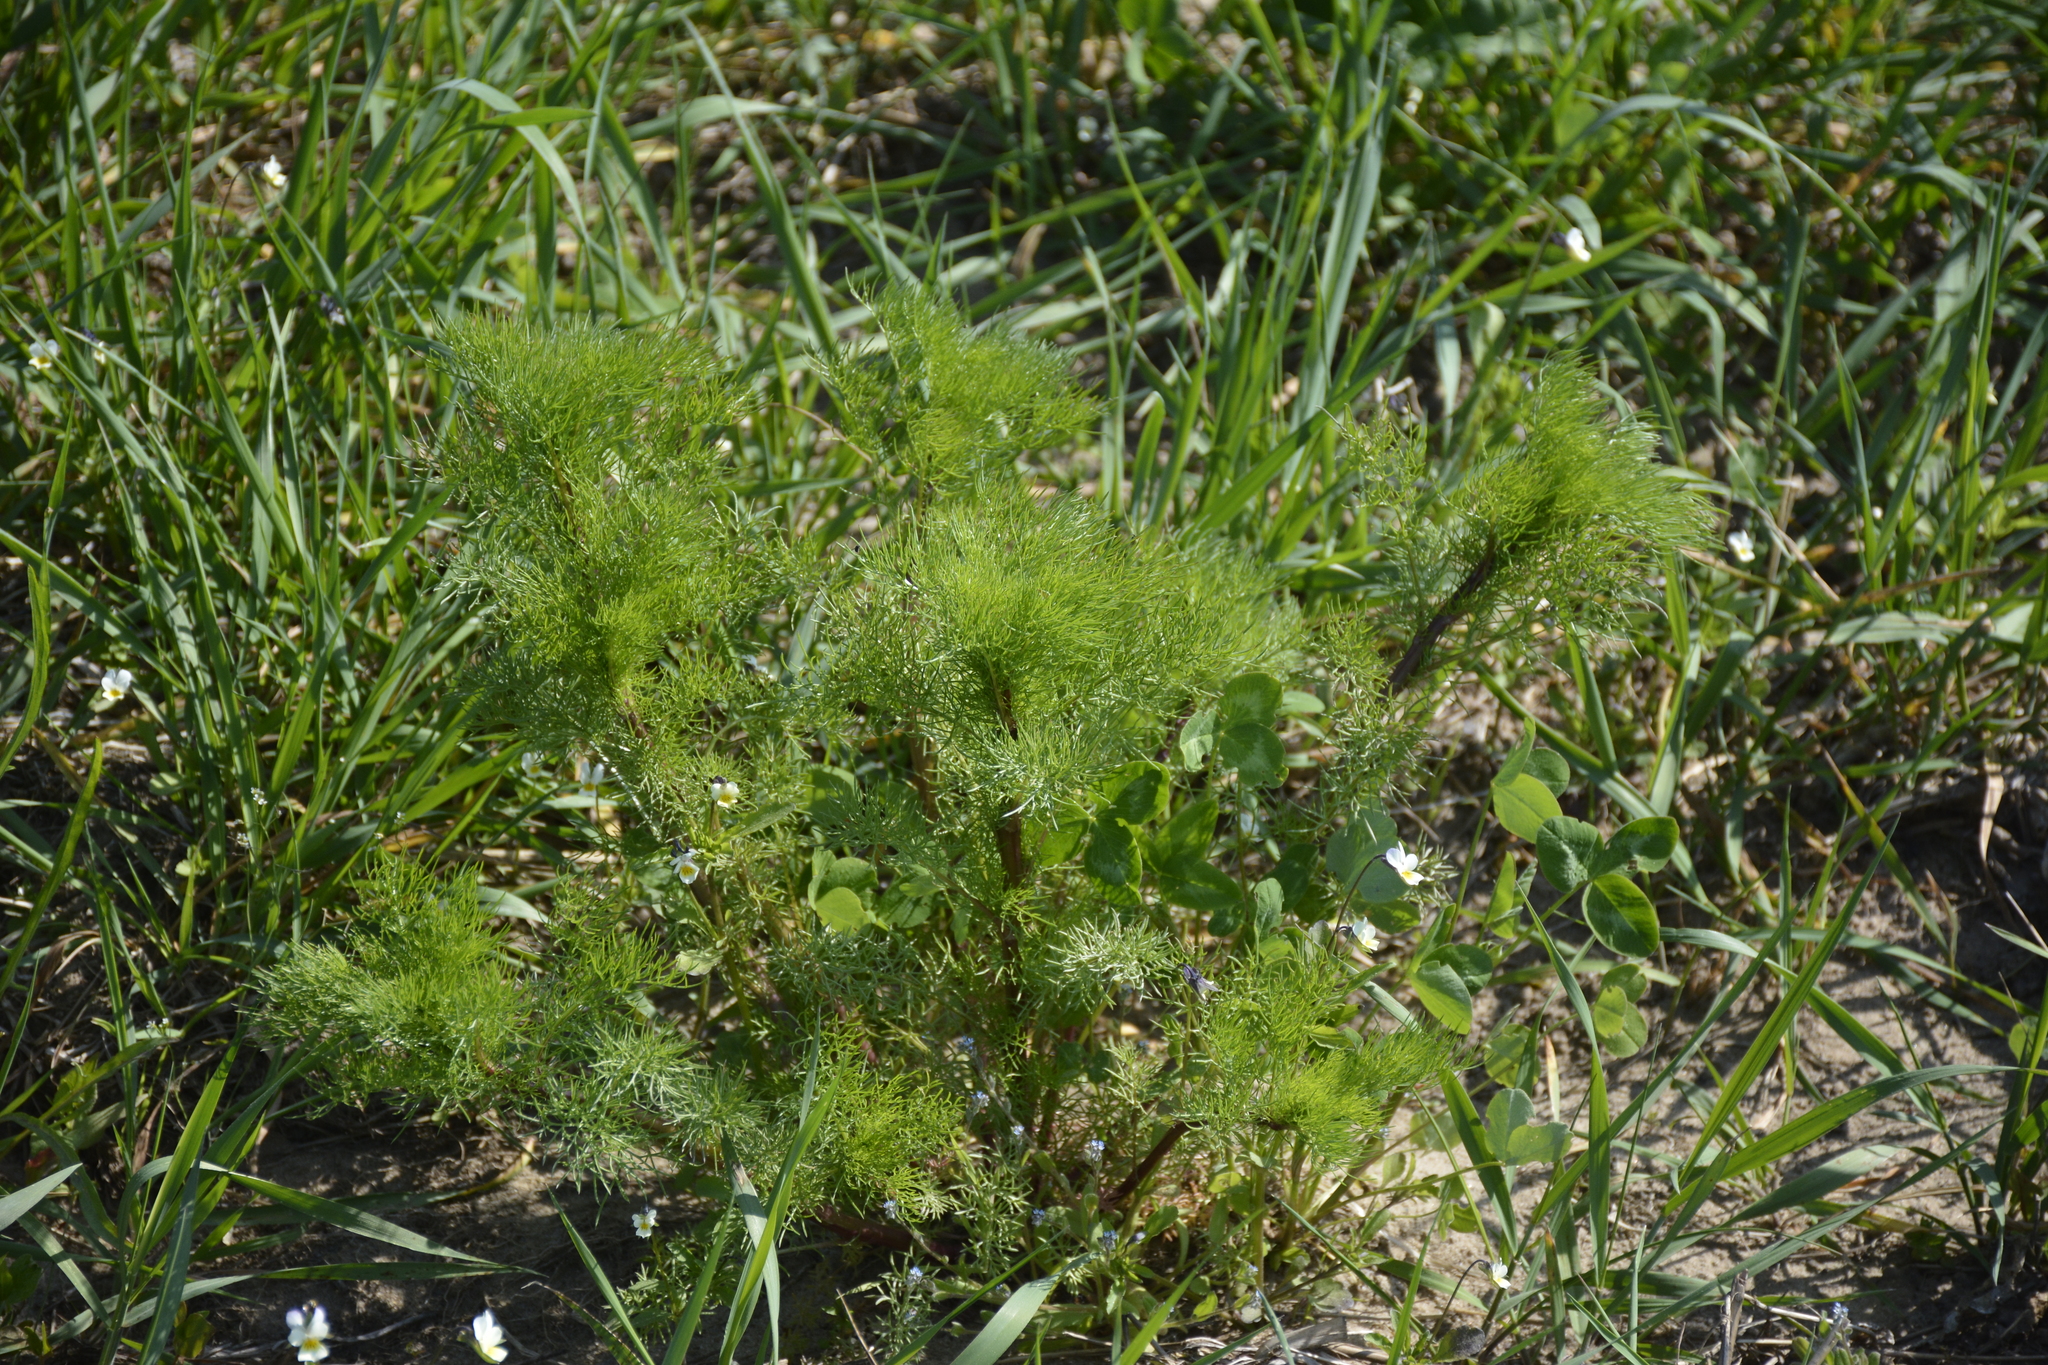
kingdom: Plantae
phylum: Tracheophyta
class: Magnoliopsida
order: Asterales
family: Asteraceae
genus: Tripleurospermum
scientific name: Tripleurospermum inodorum
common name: Scentless mayweed
